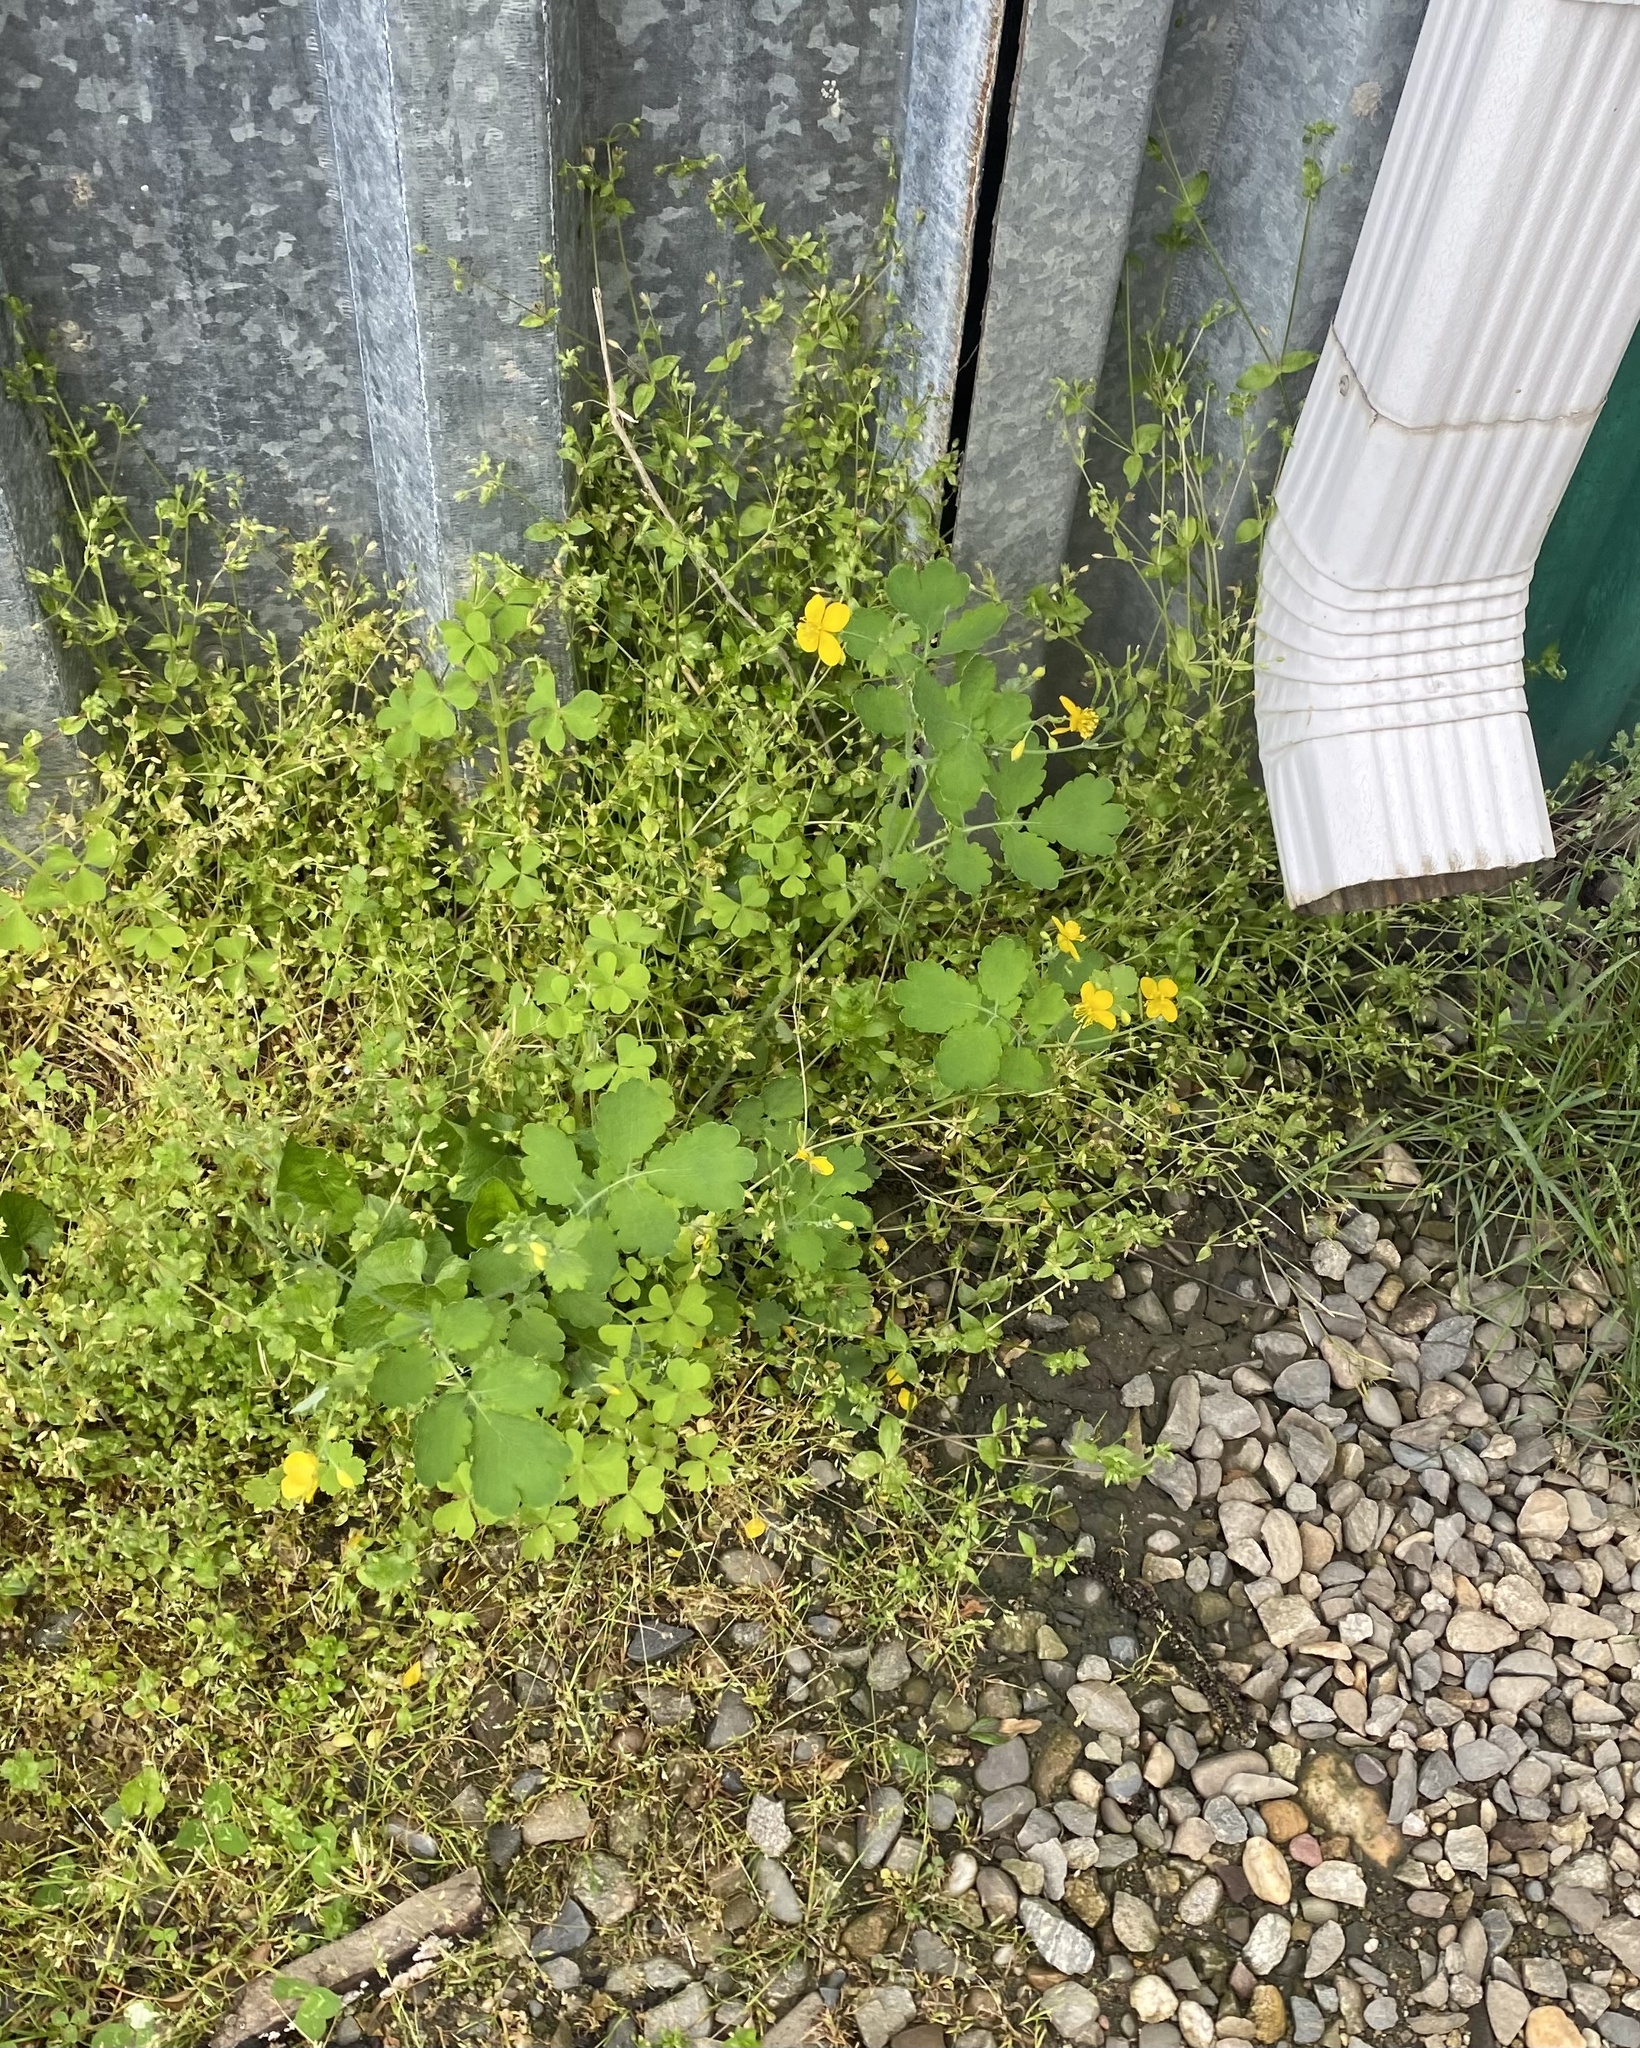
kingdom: Plantae
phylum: Tracheophyta
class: Magnoliopsida
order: Ranunculales
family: Papaveraceae
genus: Chelidonium
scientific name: Chelidonium majus
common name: Greater celandine
